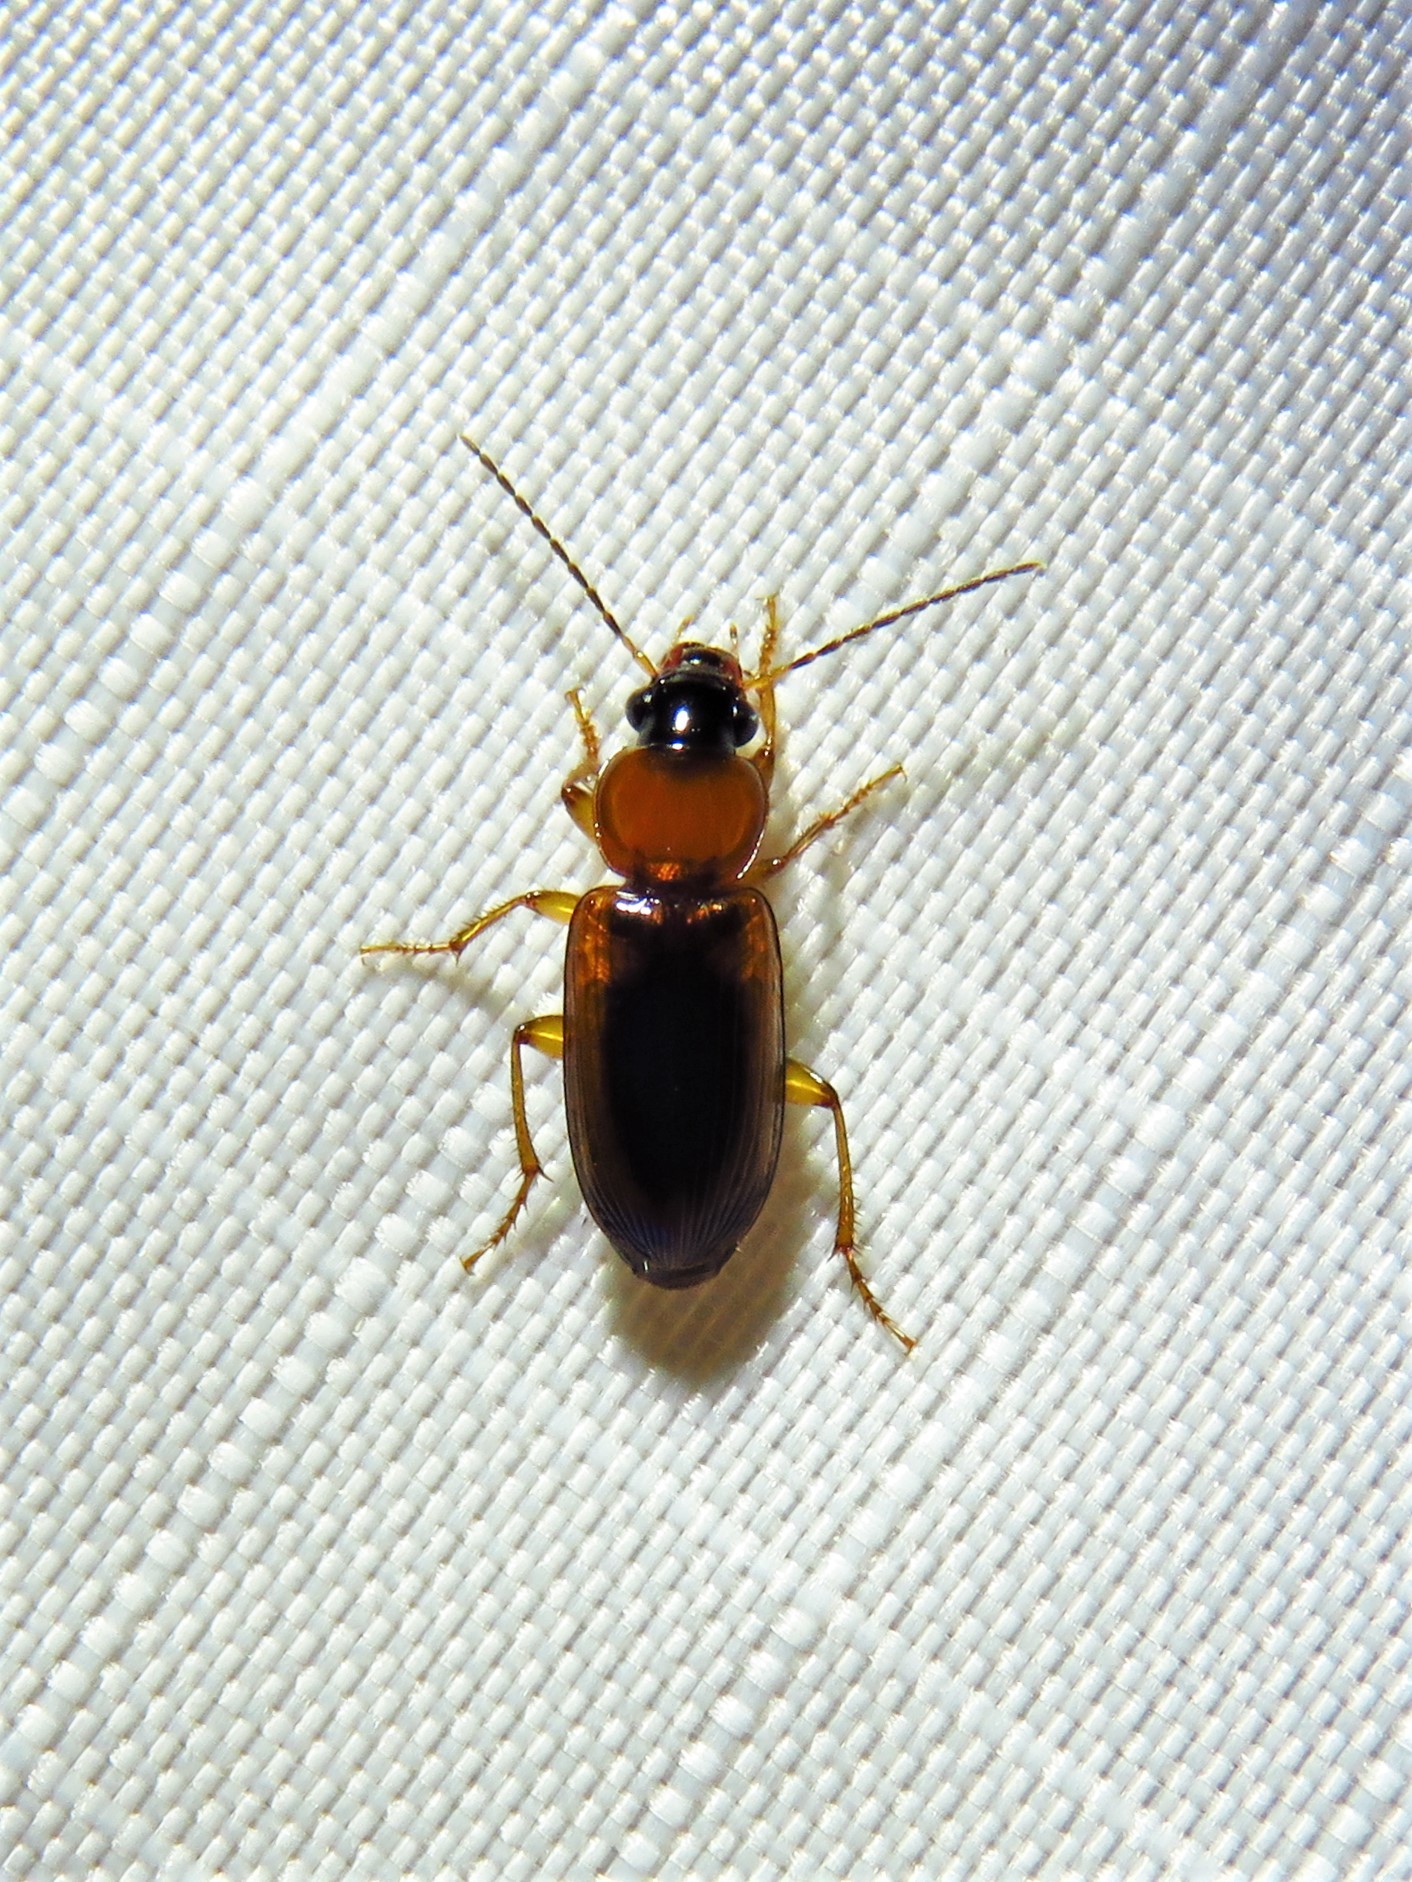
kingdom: Animalia
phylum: Arthropoda
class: Insecta
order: Coleoptera
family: Carabidae
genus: Stenolophus
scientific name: Stenolophus dissimilis
